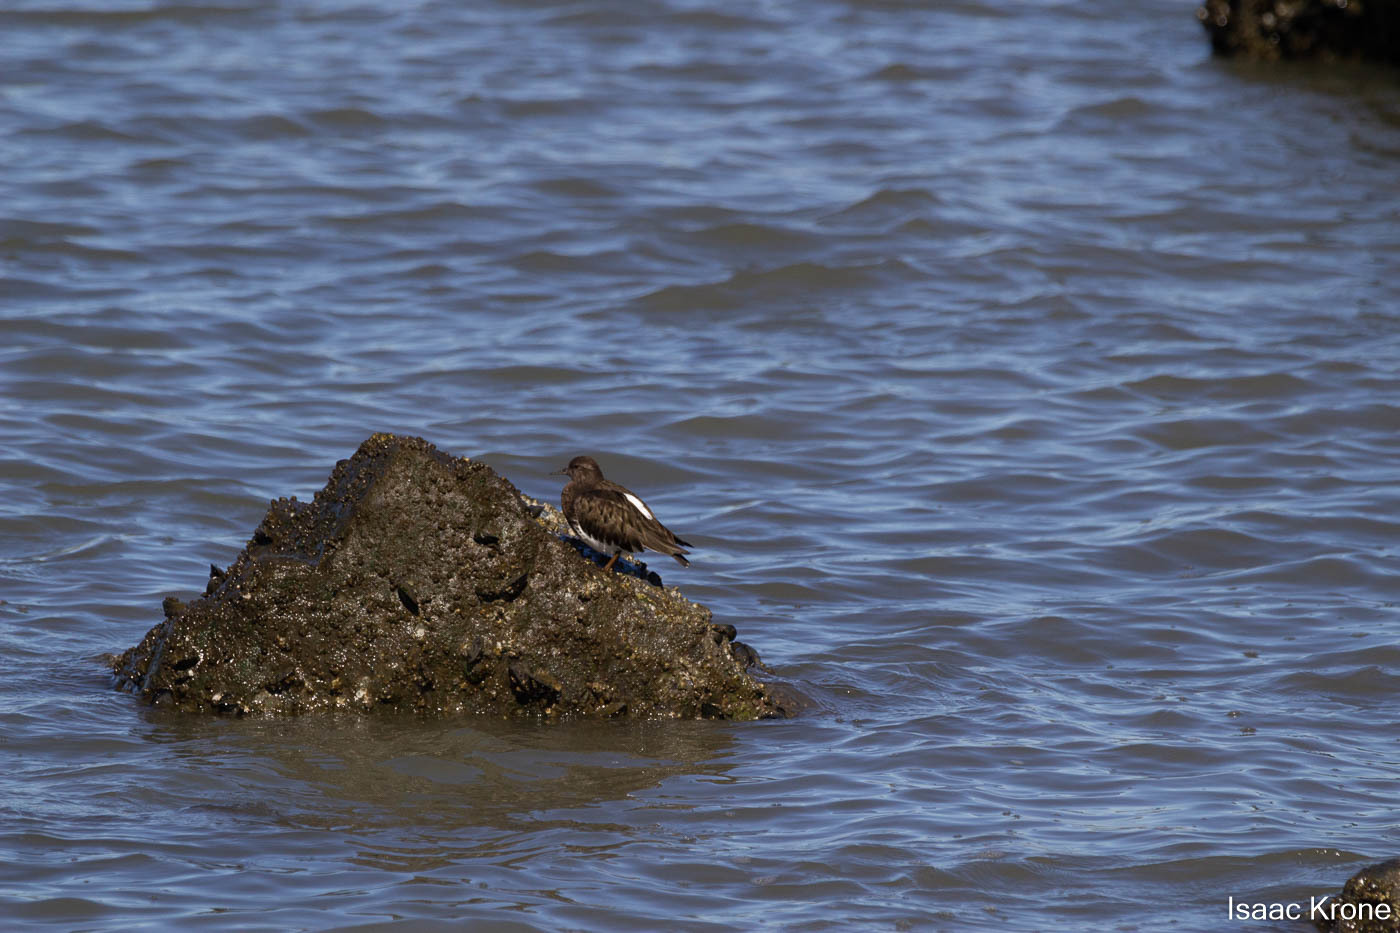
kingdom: Animalia
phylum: Chordata
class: Aves
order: Charadriiformes
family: Scolopacidae
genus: Arenaria
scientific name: Arenaria melanocephala
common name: Black turnstone
